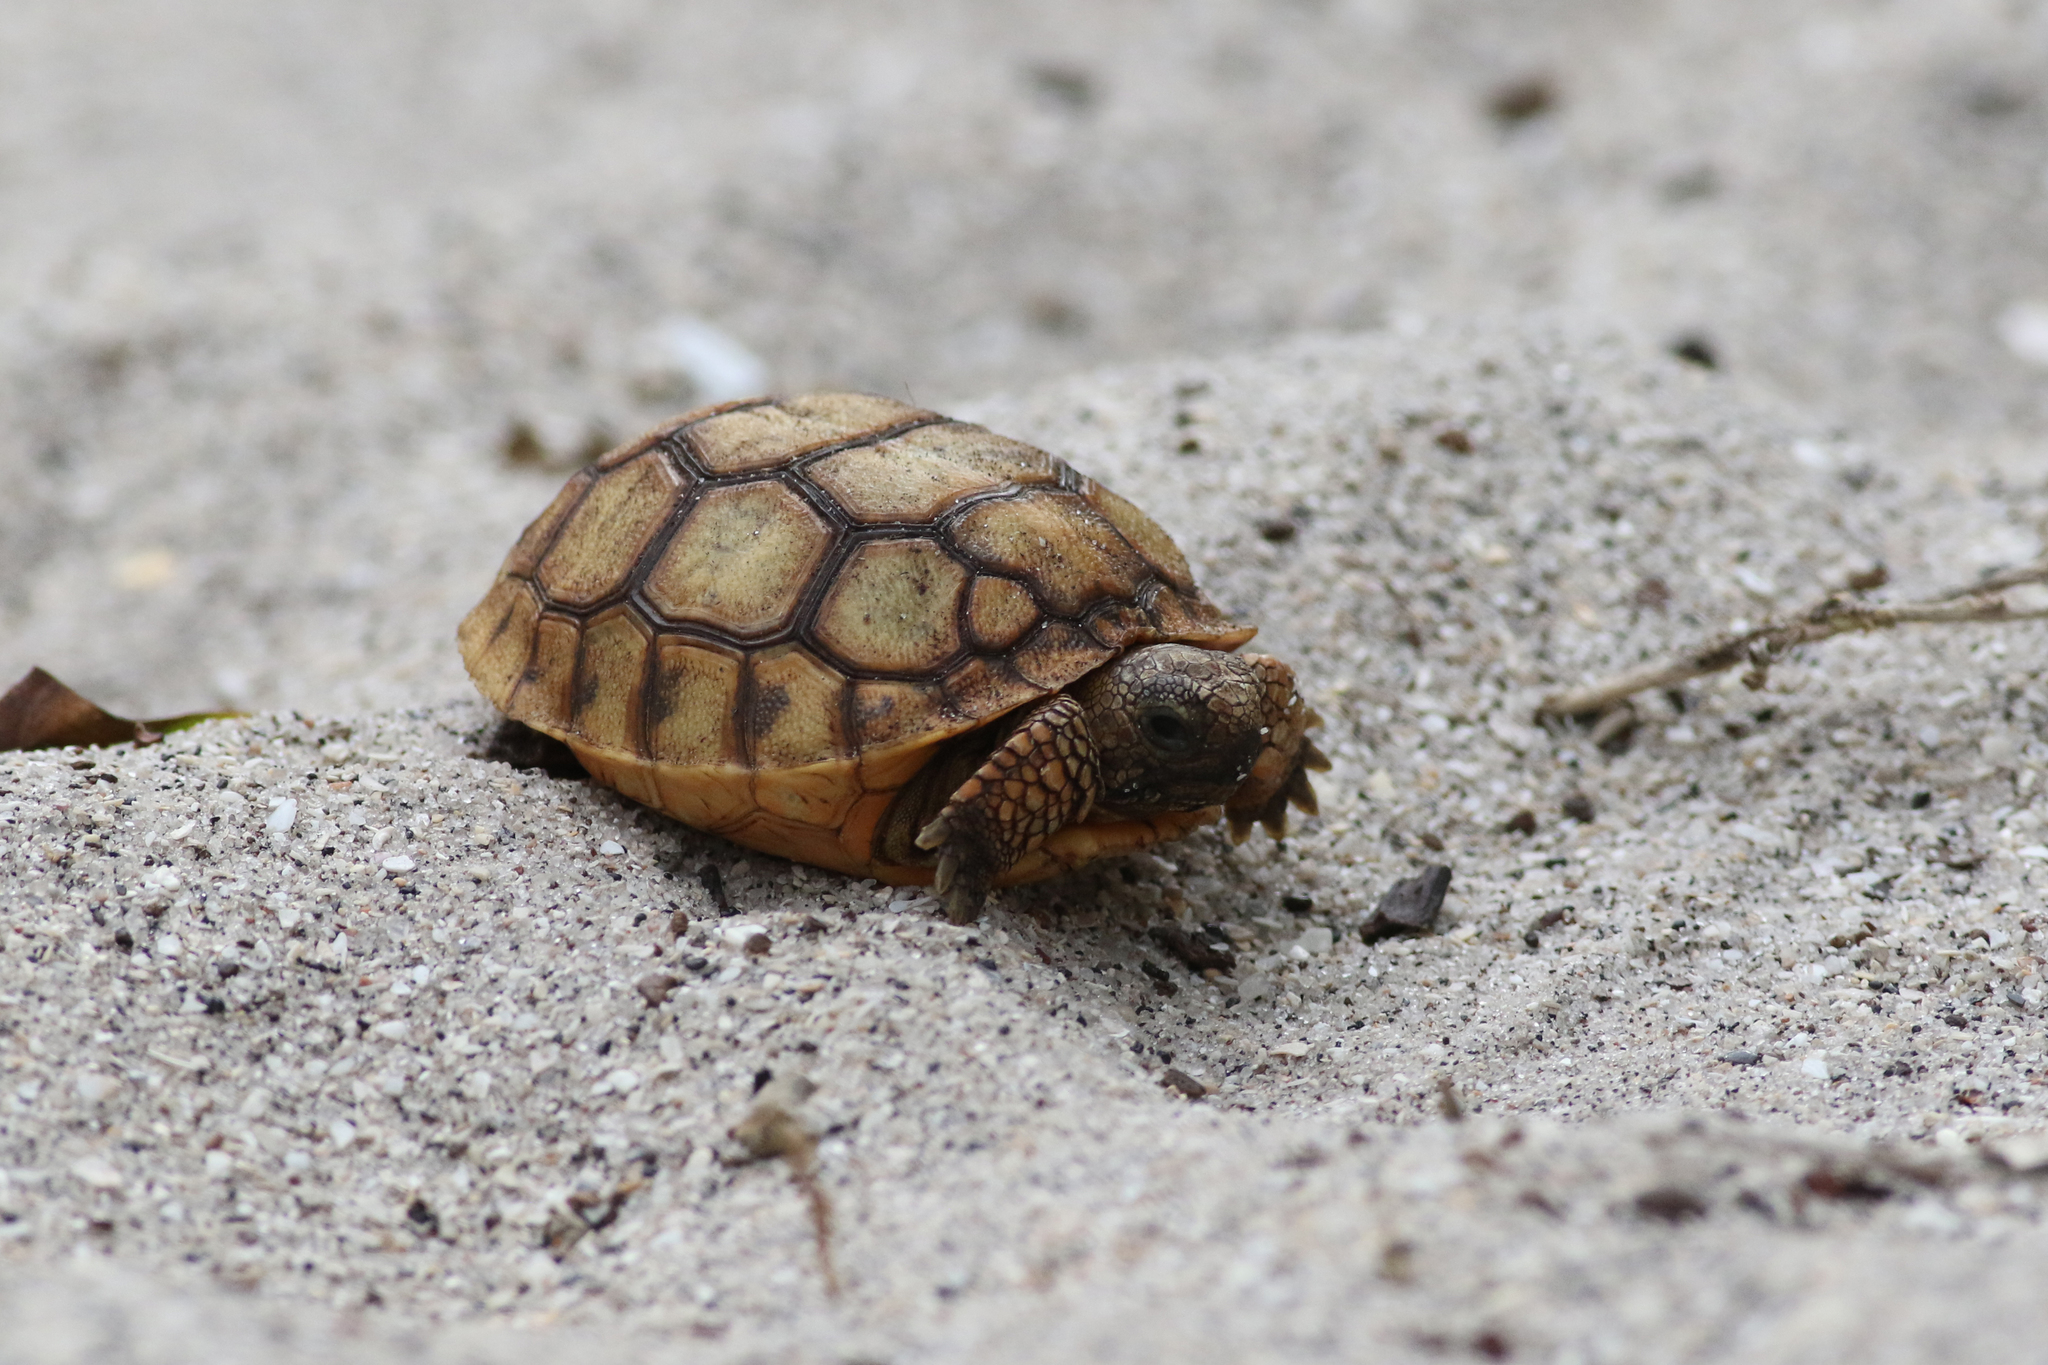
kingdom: Animalia
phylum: Chordata
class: Testudines
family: Testudinidae
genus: Gopherus
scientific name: Gopherus polyphemus
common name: Florida gopher tortoise
